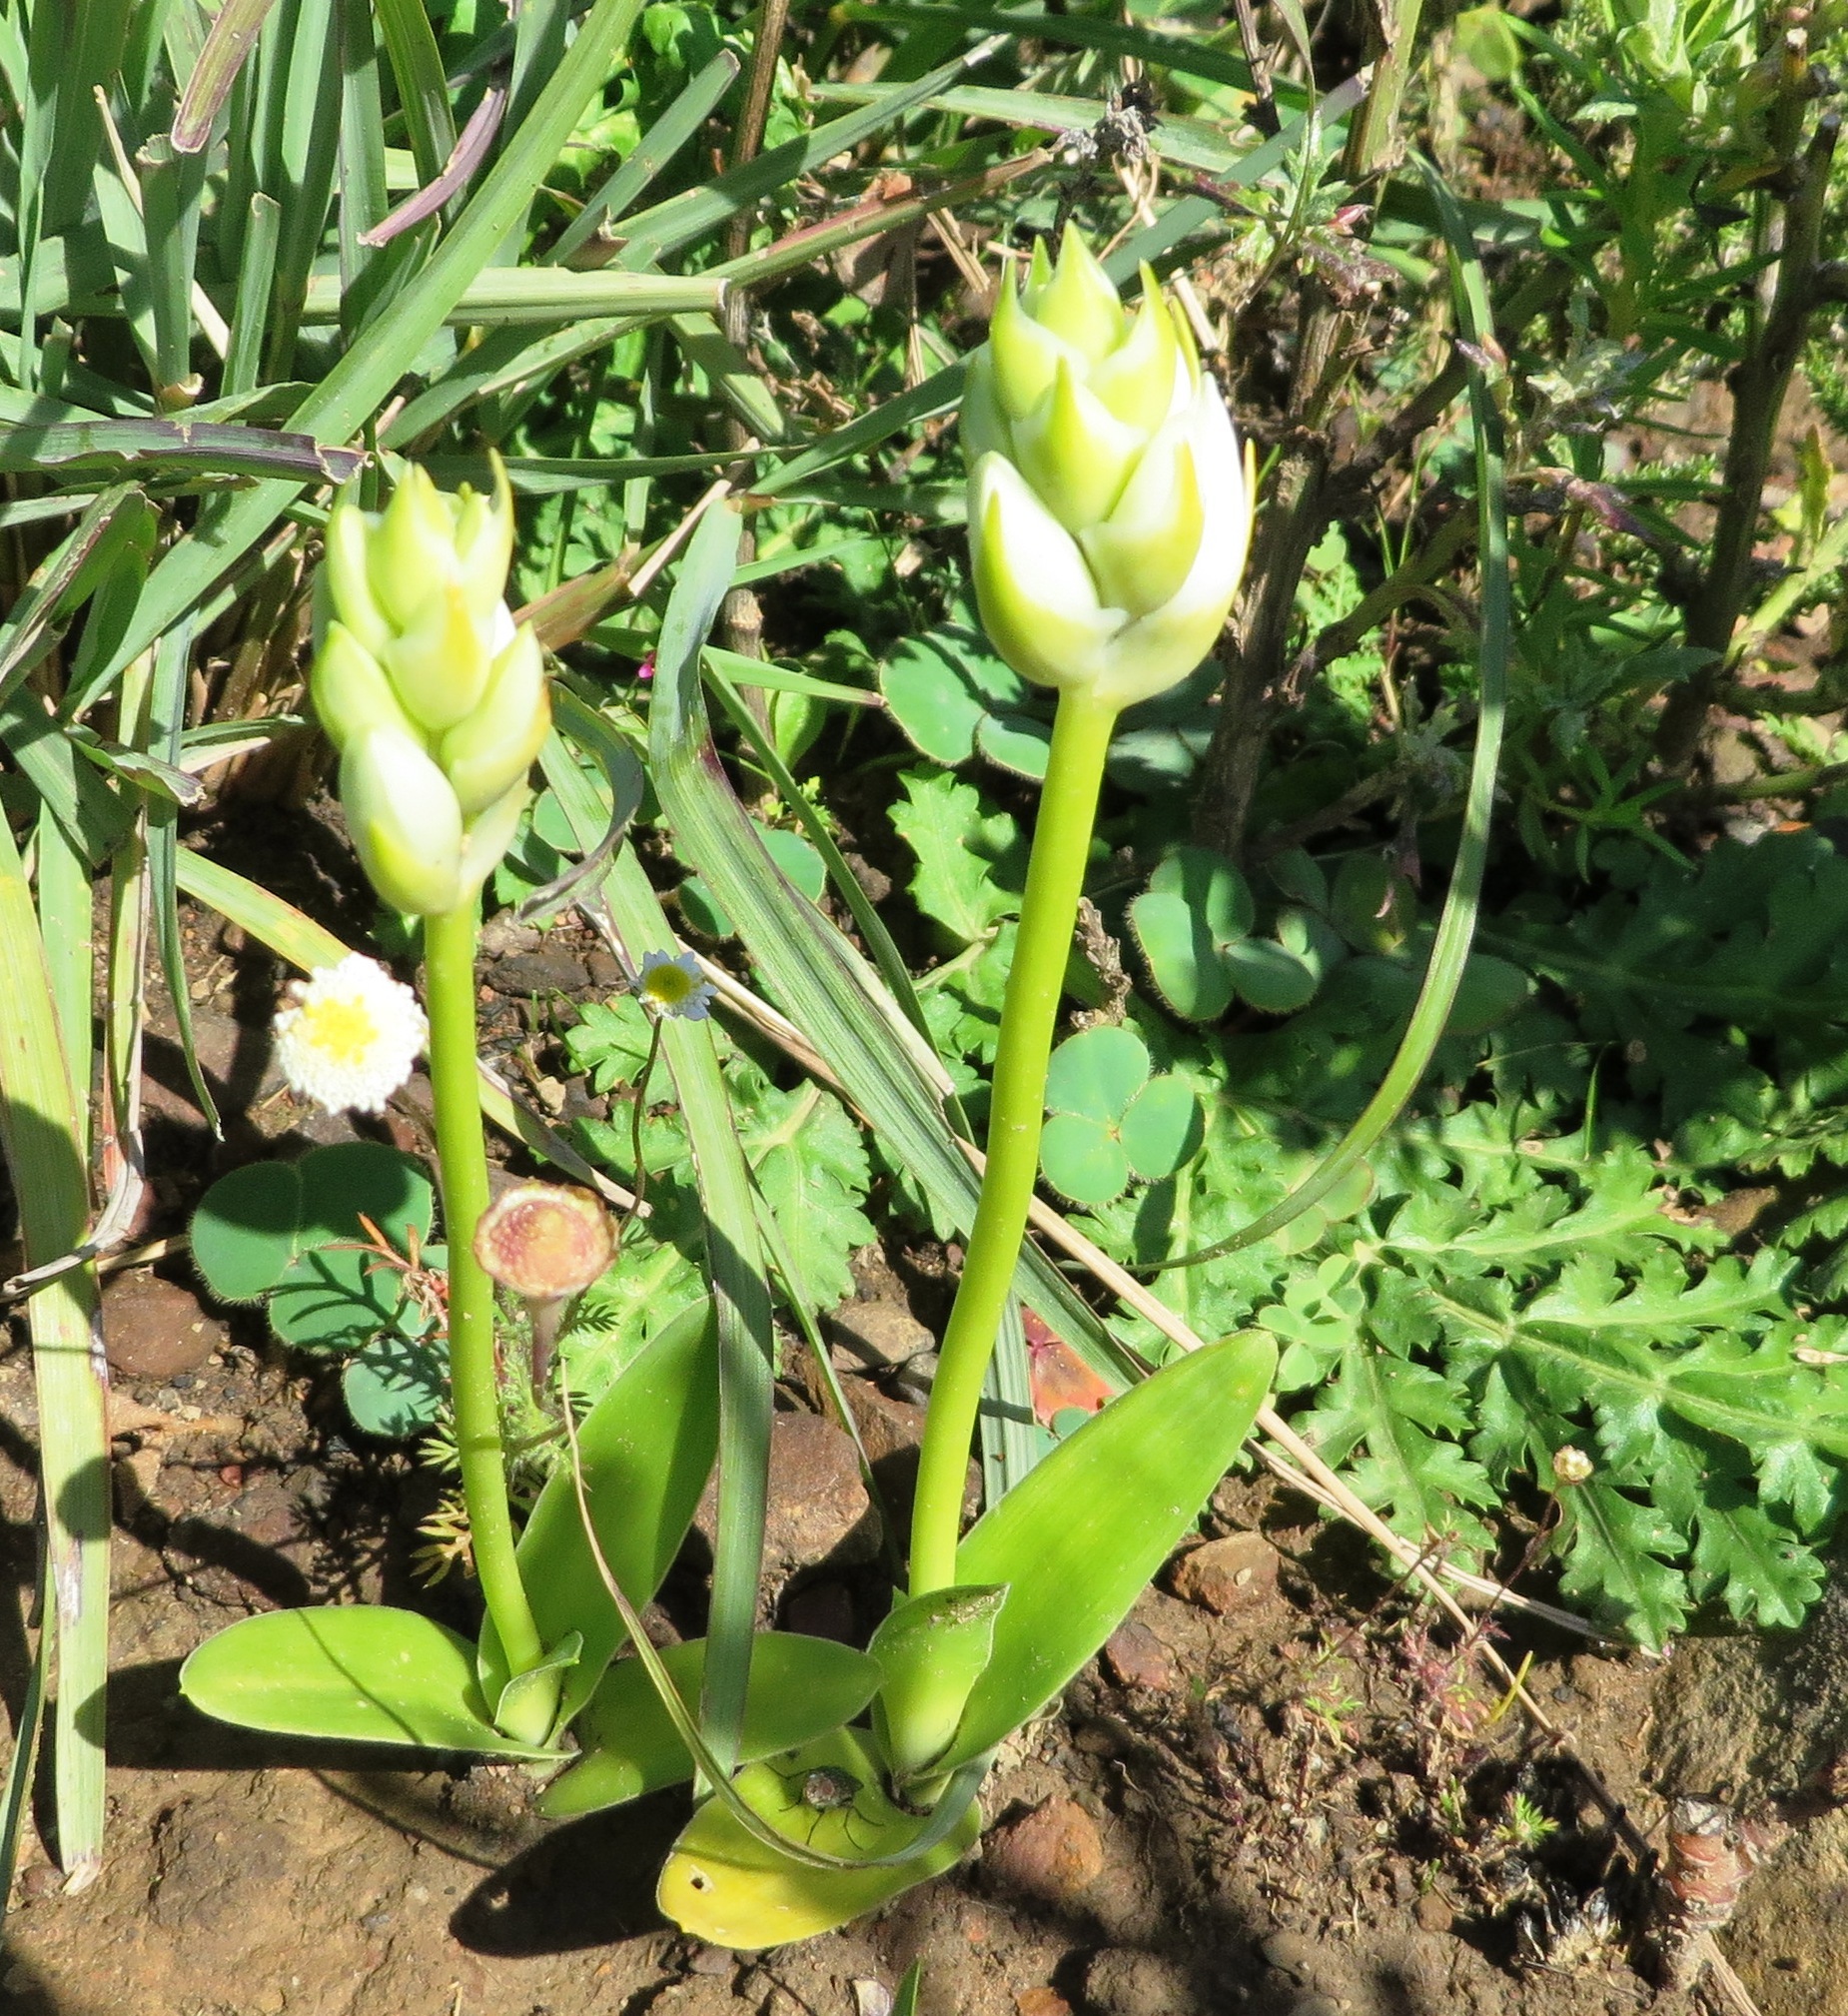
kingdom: Plantae
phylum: Tracheophyta
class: Liliopsida
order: Asparagales
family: Asparagaceae
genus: Ornithogalum
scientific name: Ornithogalum thyrsoides
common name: Chincherinchee
